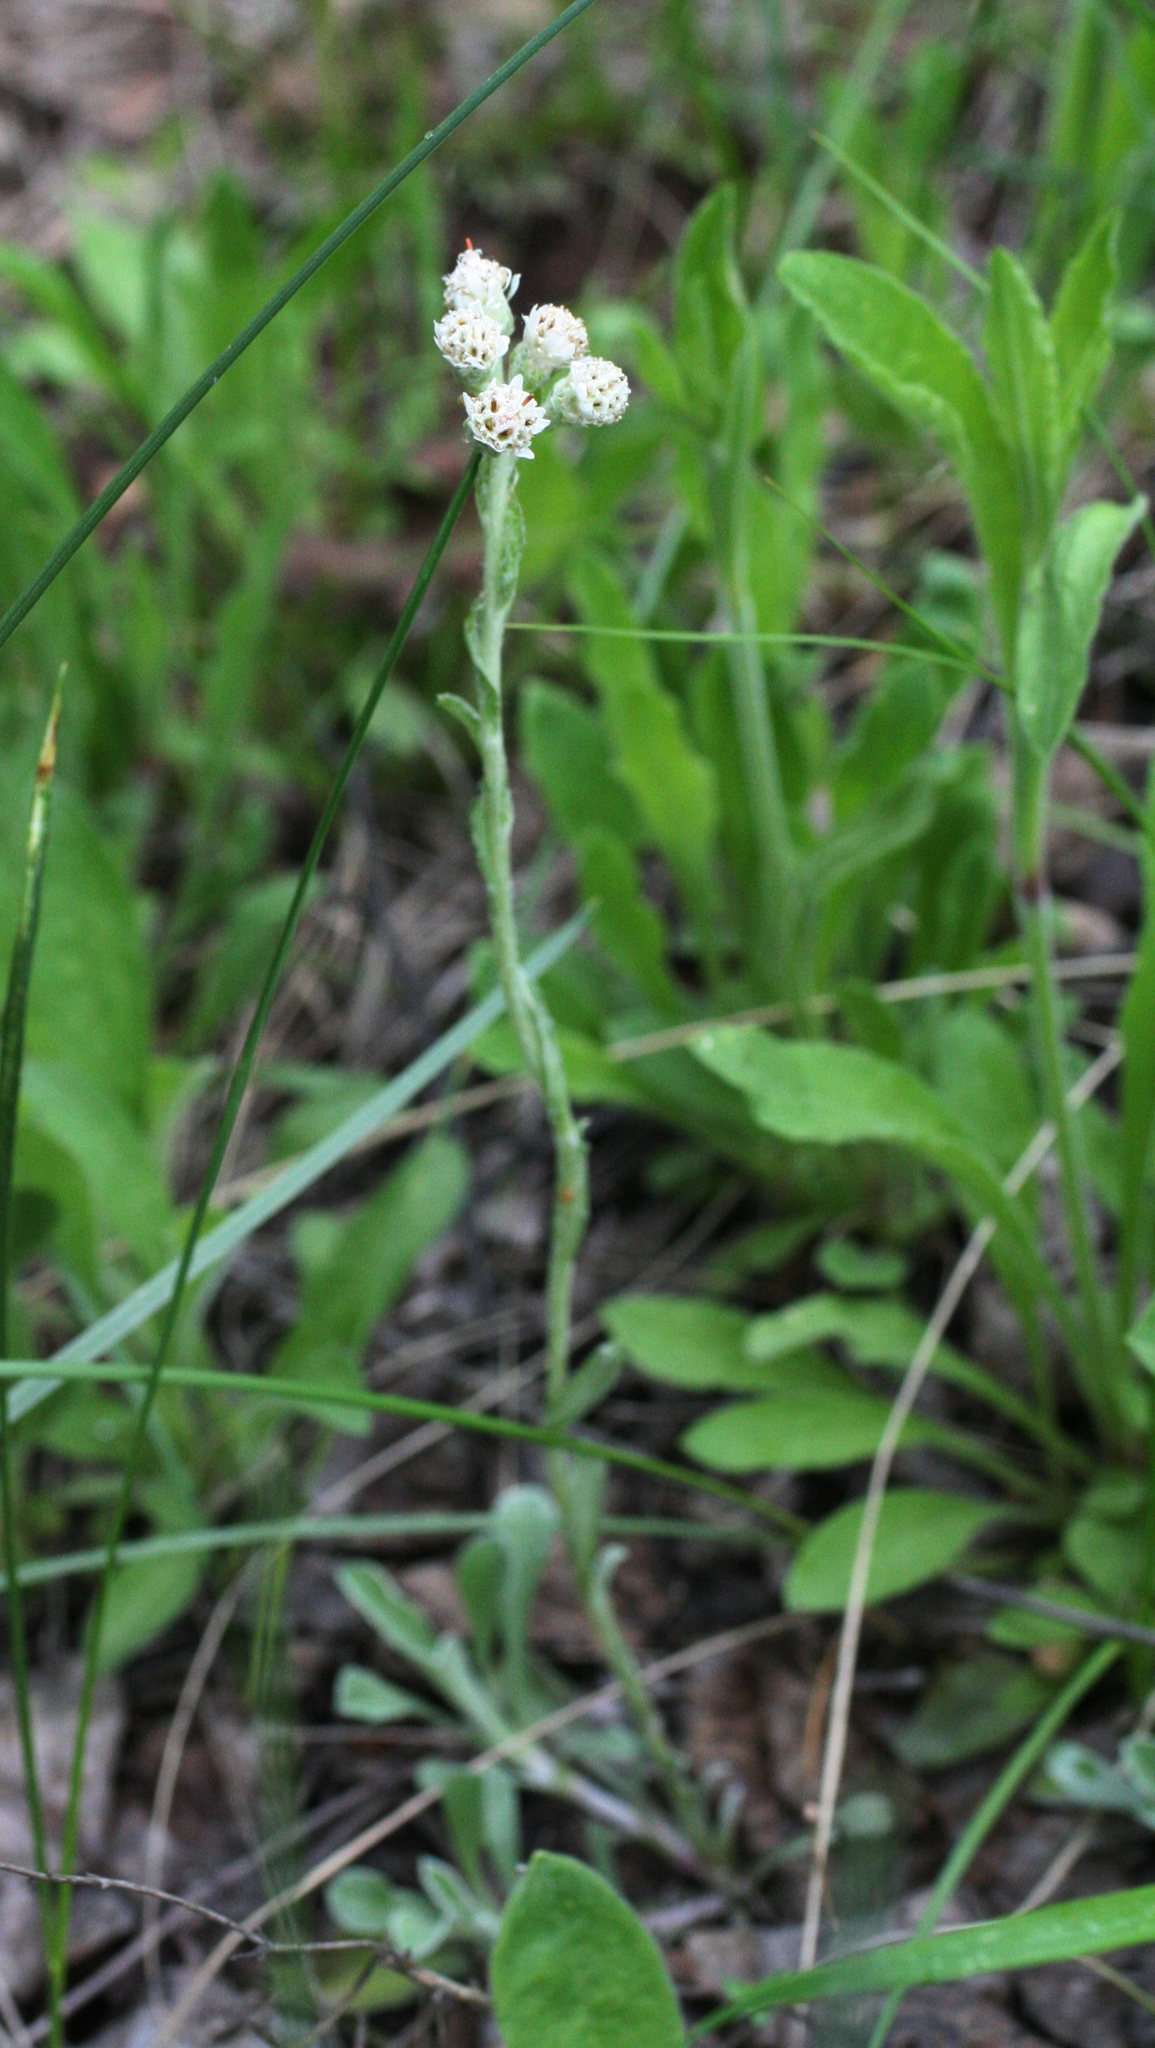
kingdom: Plantae
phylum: Tracheophyta
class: Magnoliopsida
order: Asterales
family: Asteraceae
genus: Antennaria
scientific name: Antennaria dioica
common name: Mountain everlasting
